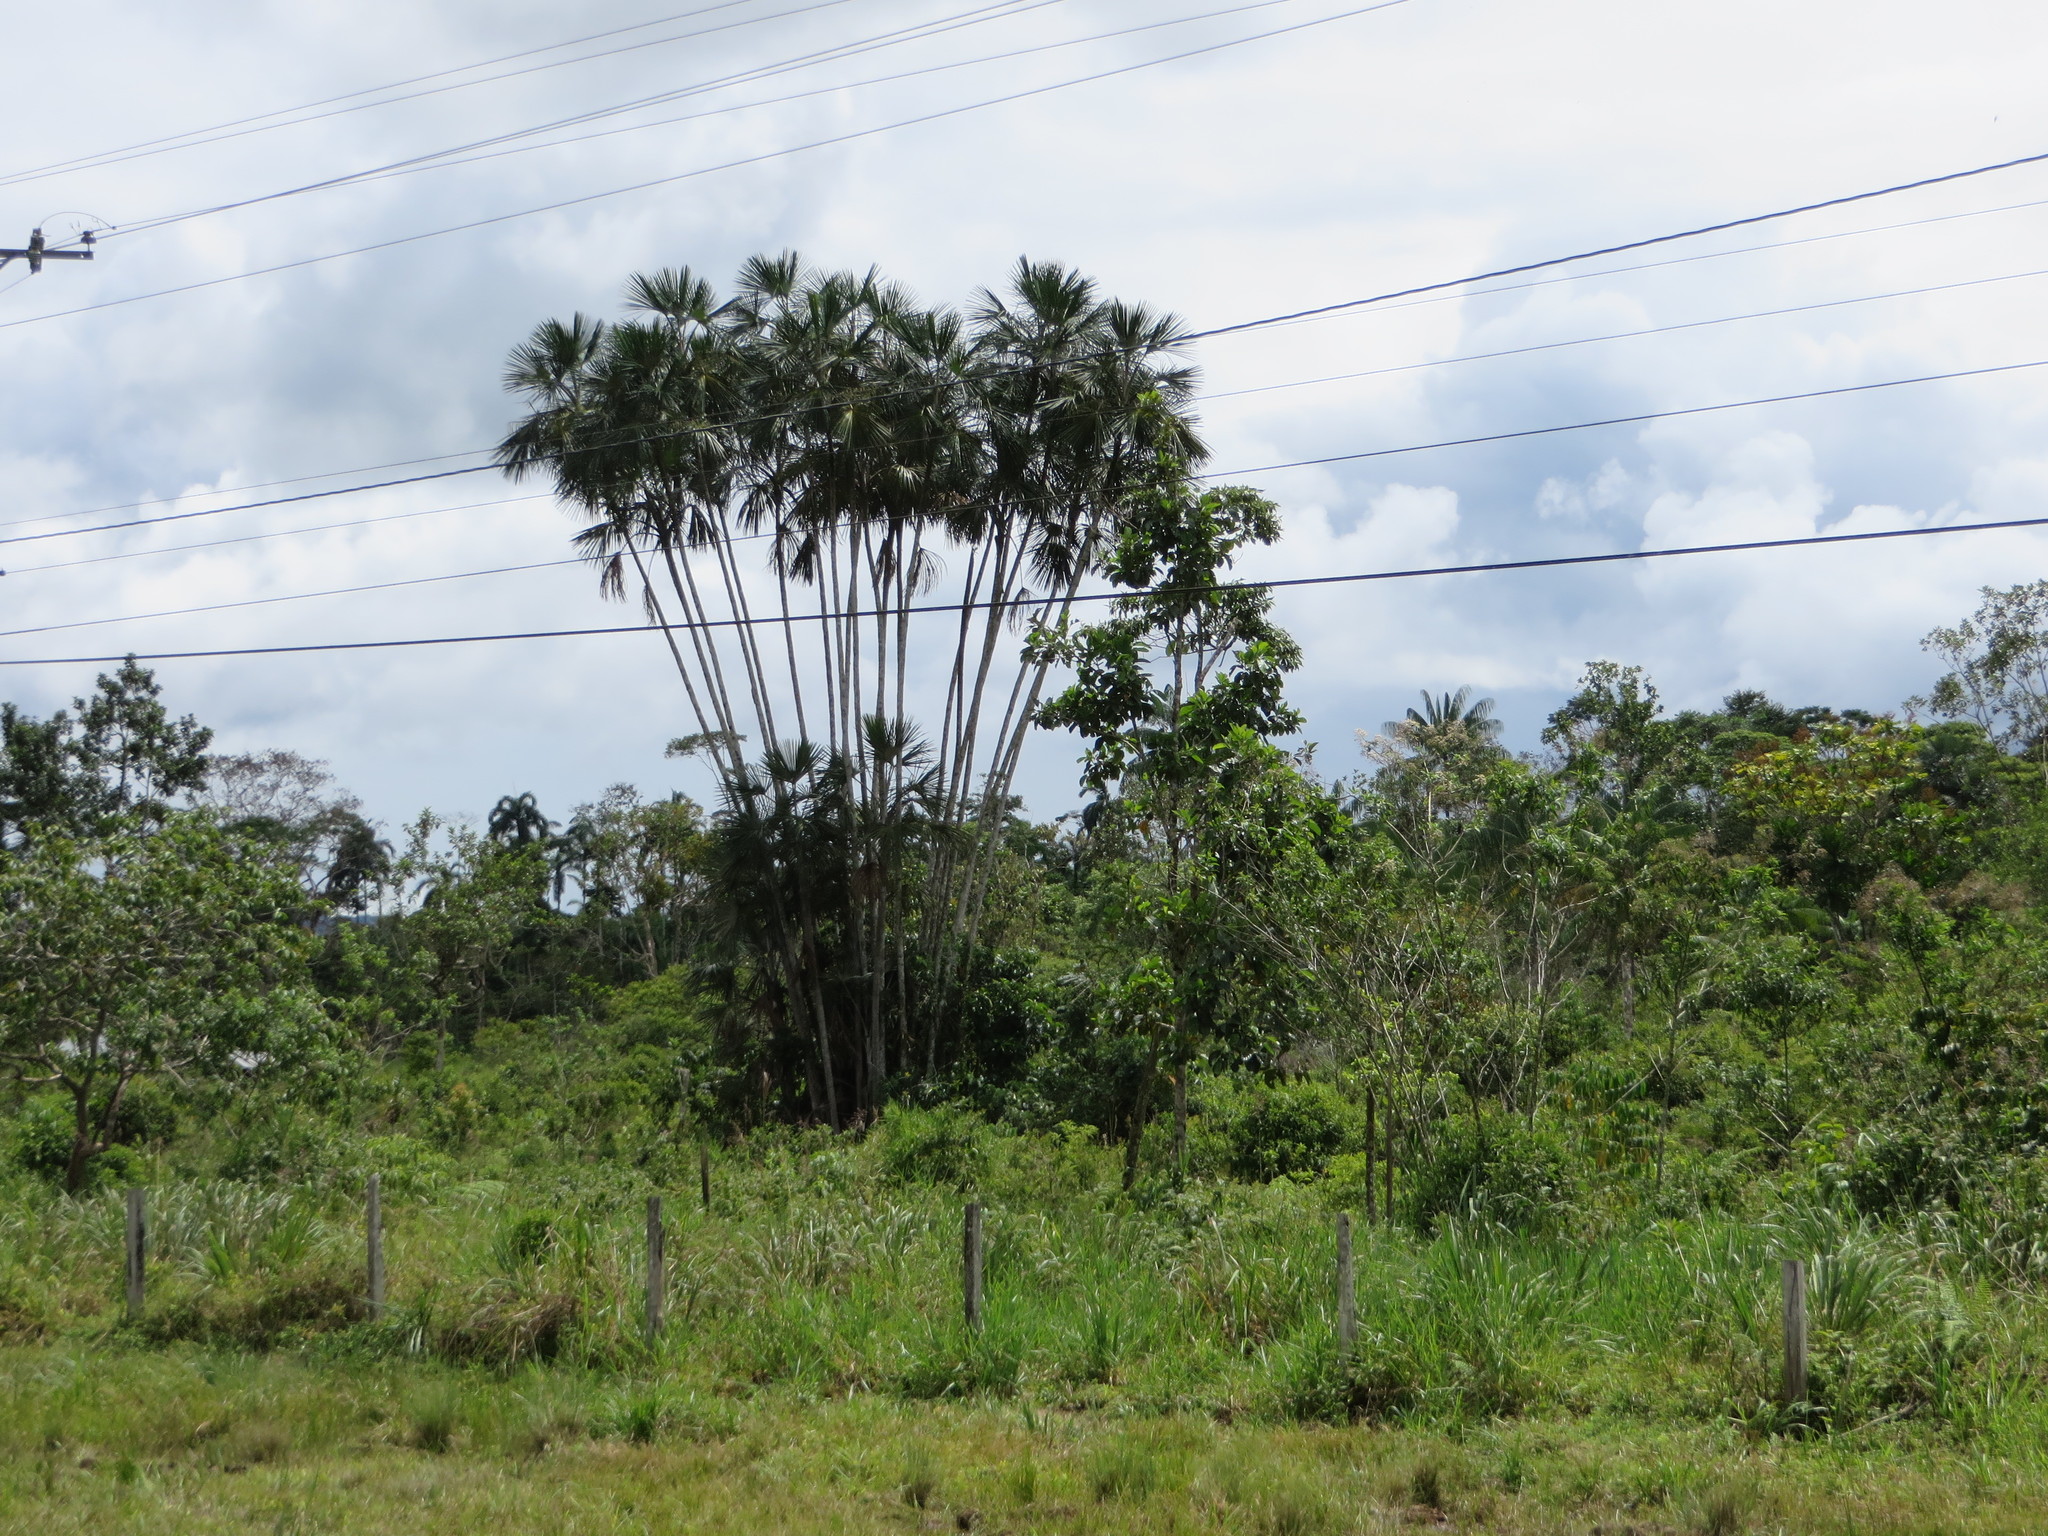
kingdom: Plantae
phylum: Tracheophyta
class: Liliopsida
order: Arecales
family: Arecaceae
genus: Mauritiella
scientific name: Mauritiella armata
